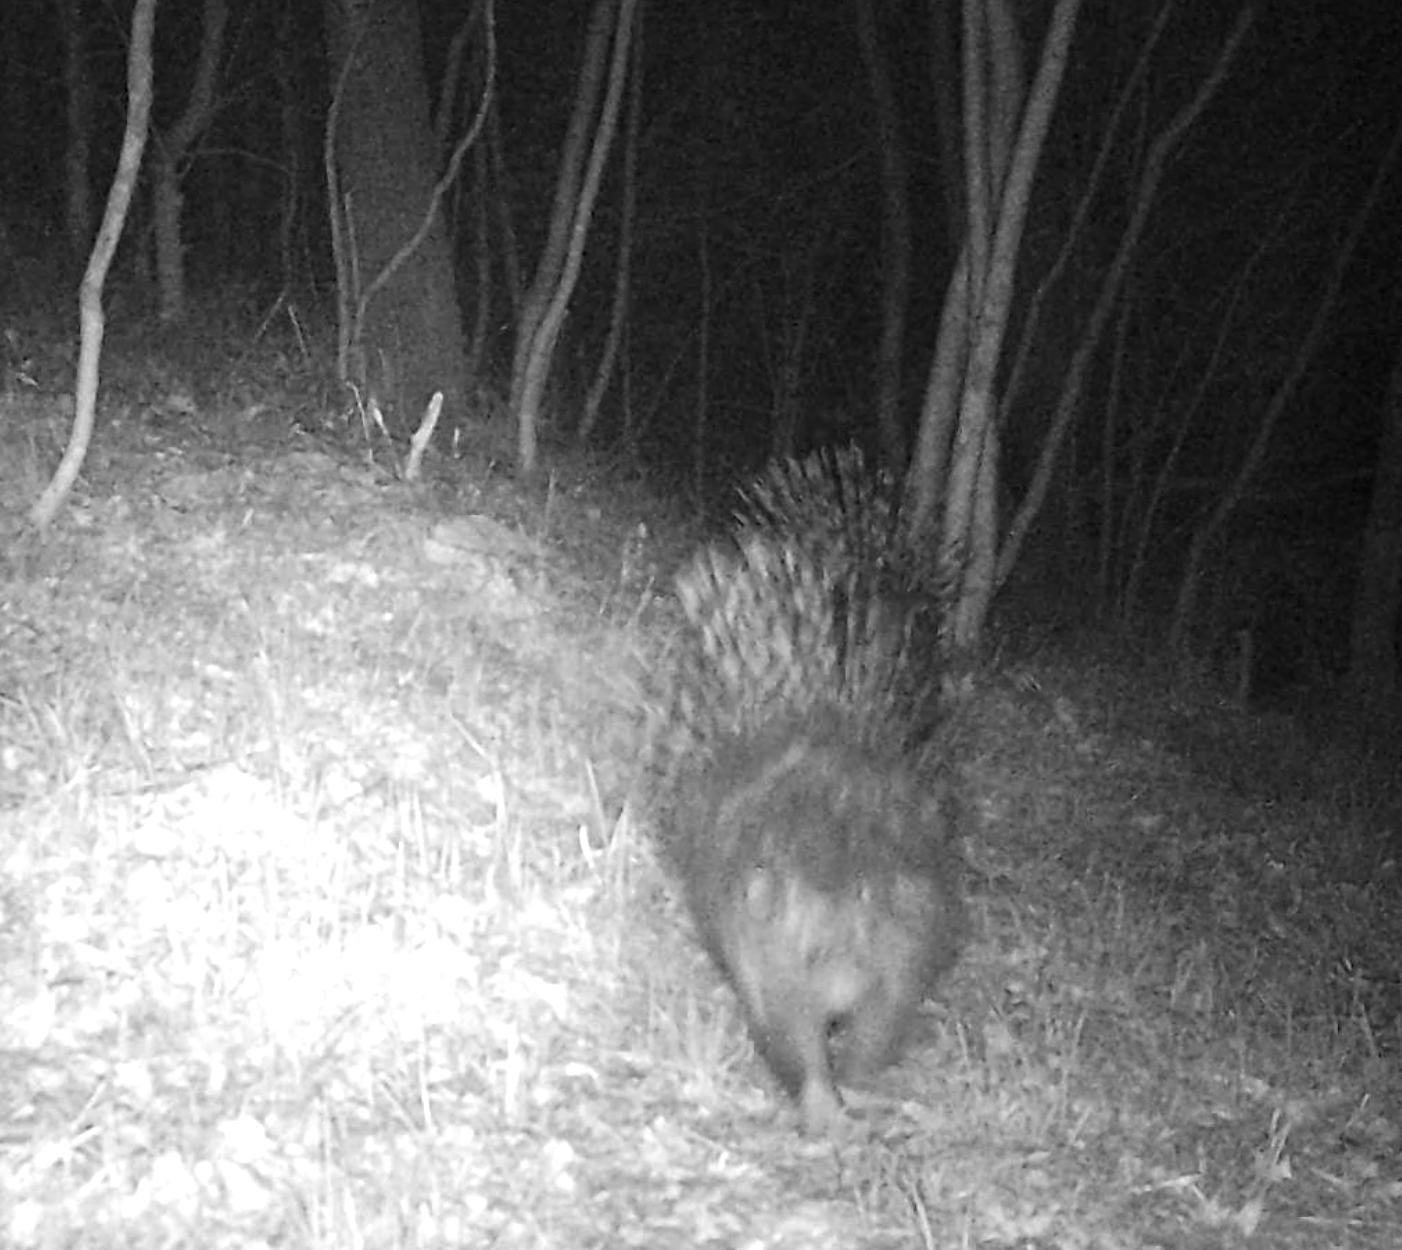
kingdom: Animalia
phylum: Chordata
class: Mammalia
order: Rodentia
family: Hystricidae
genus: Hystrix
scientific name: Hystrix cristata
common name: Crested porcupine
